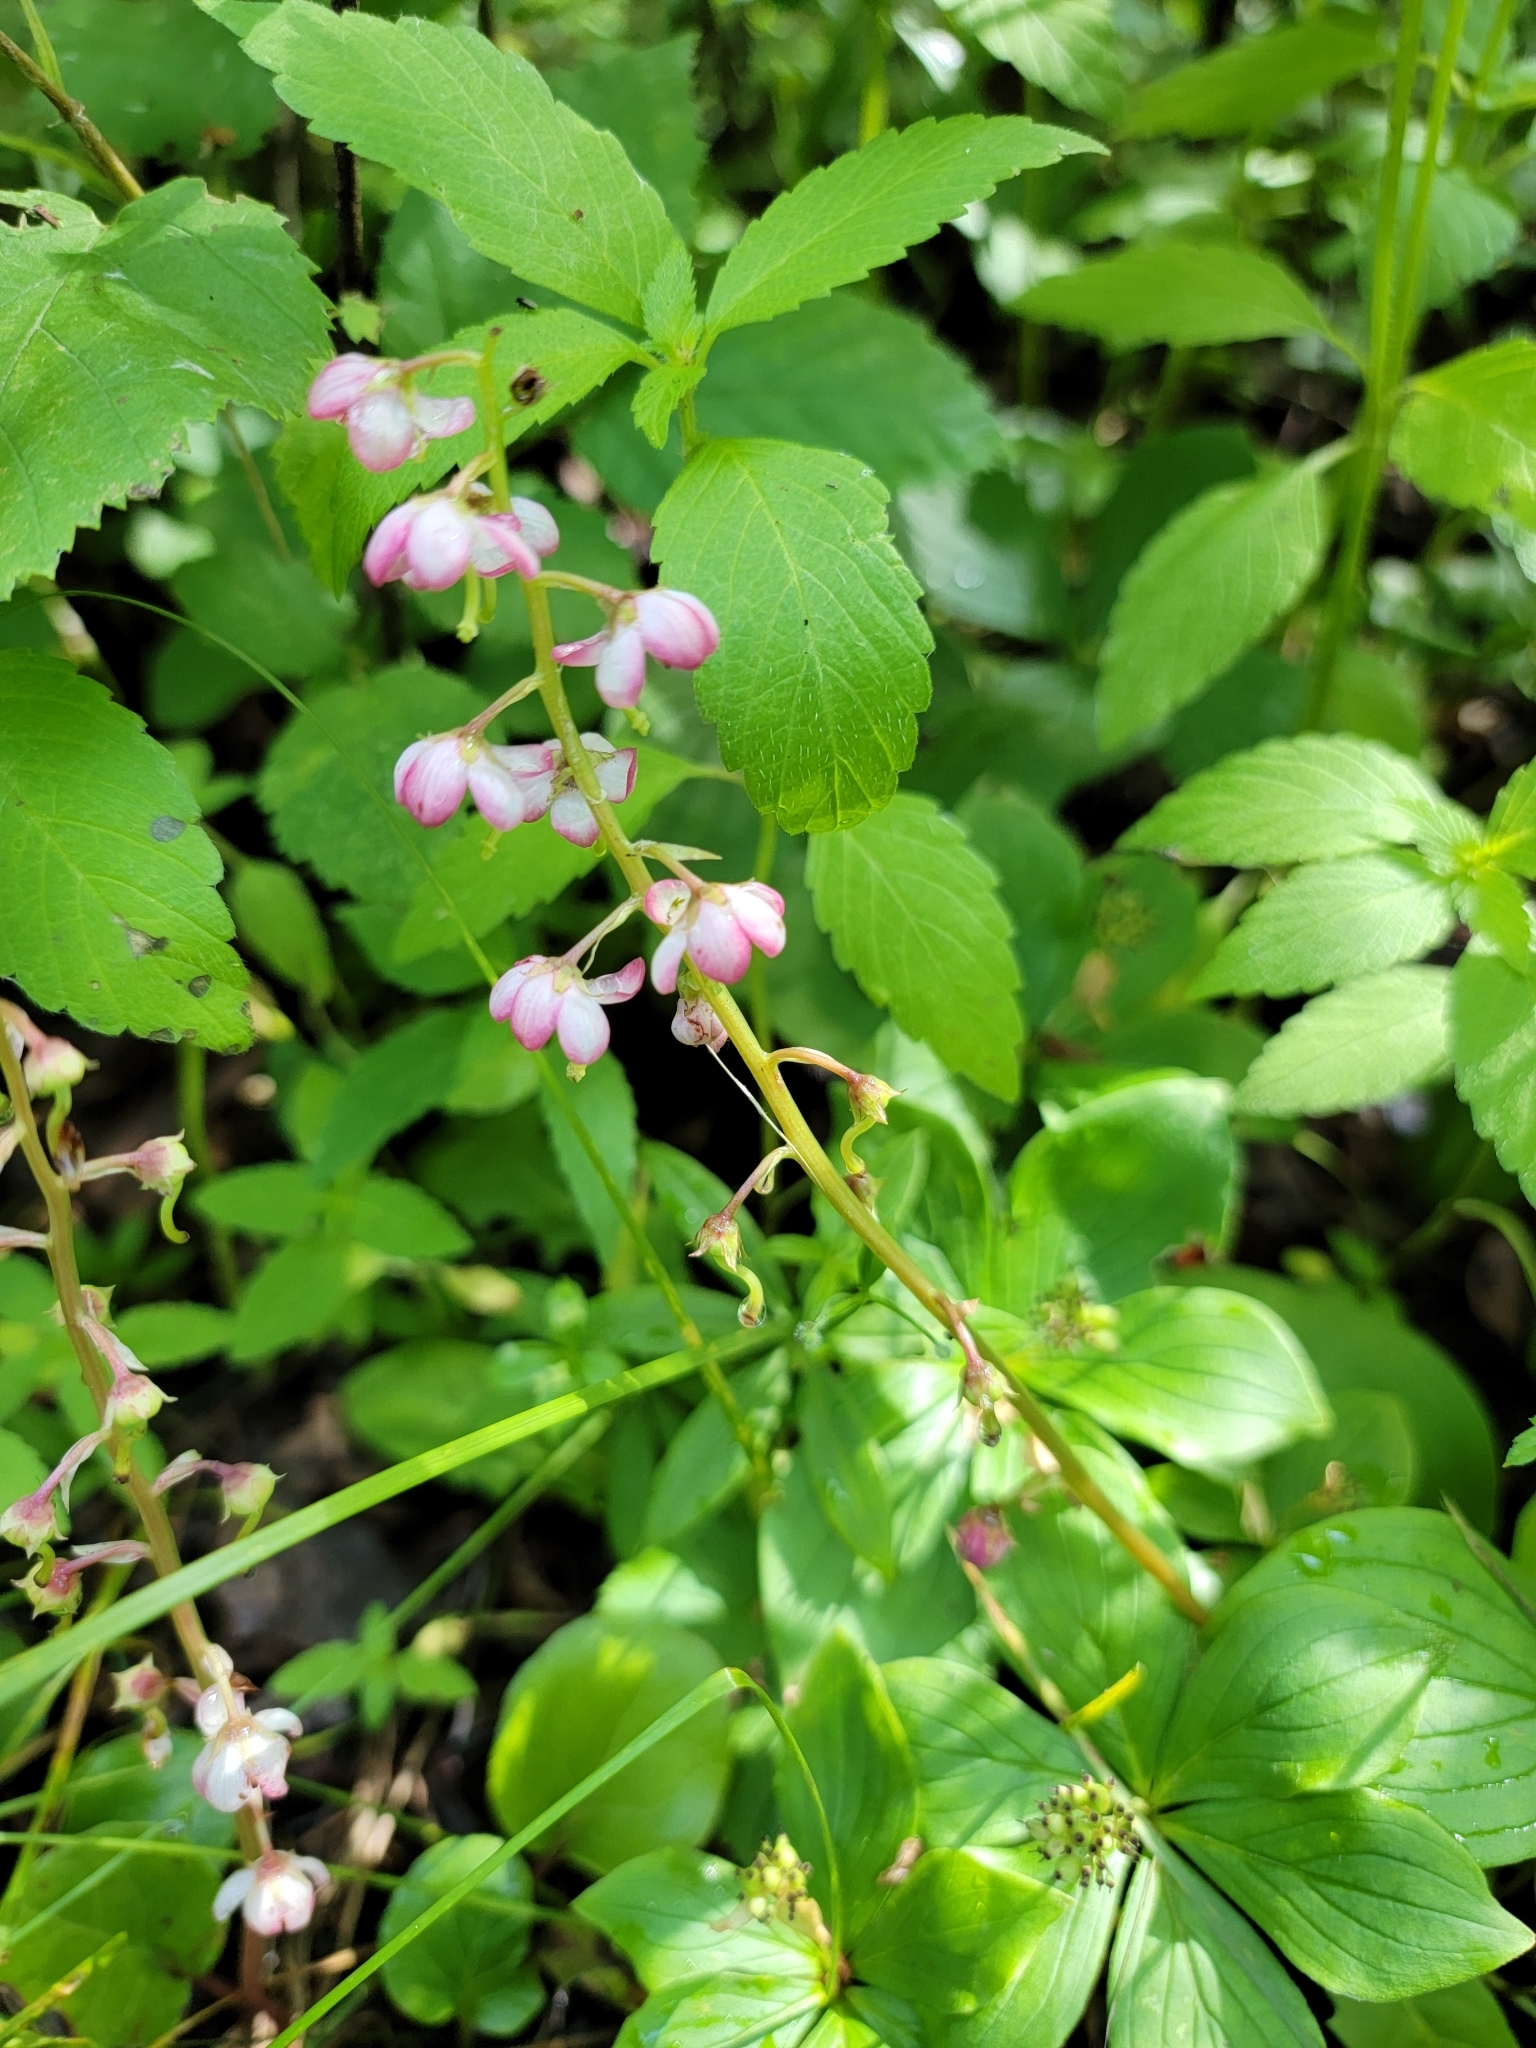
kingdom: Plantae
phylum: Tracheophyta
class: Magnoliopsida
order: Ericales
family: Ericaceae
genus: Pyrola
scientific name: Pyrola asarifolia
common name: Bog wintergreen
